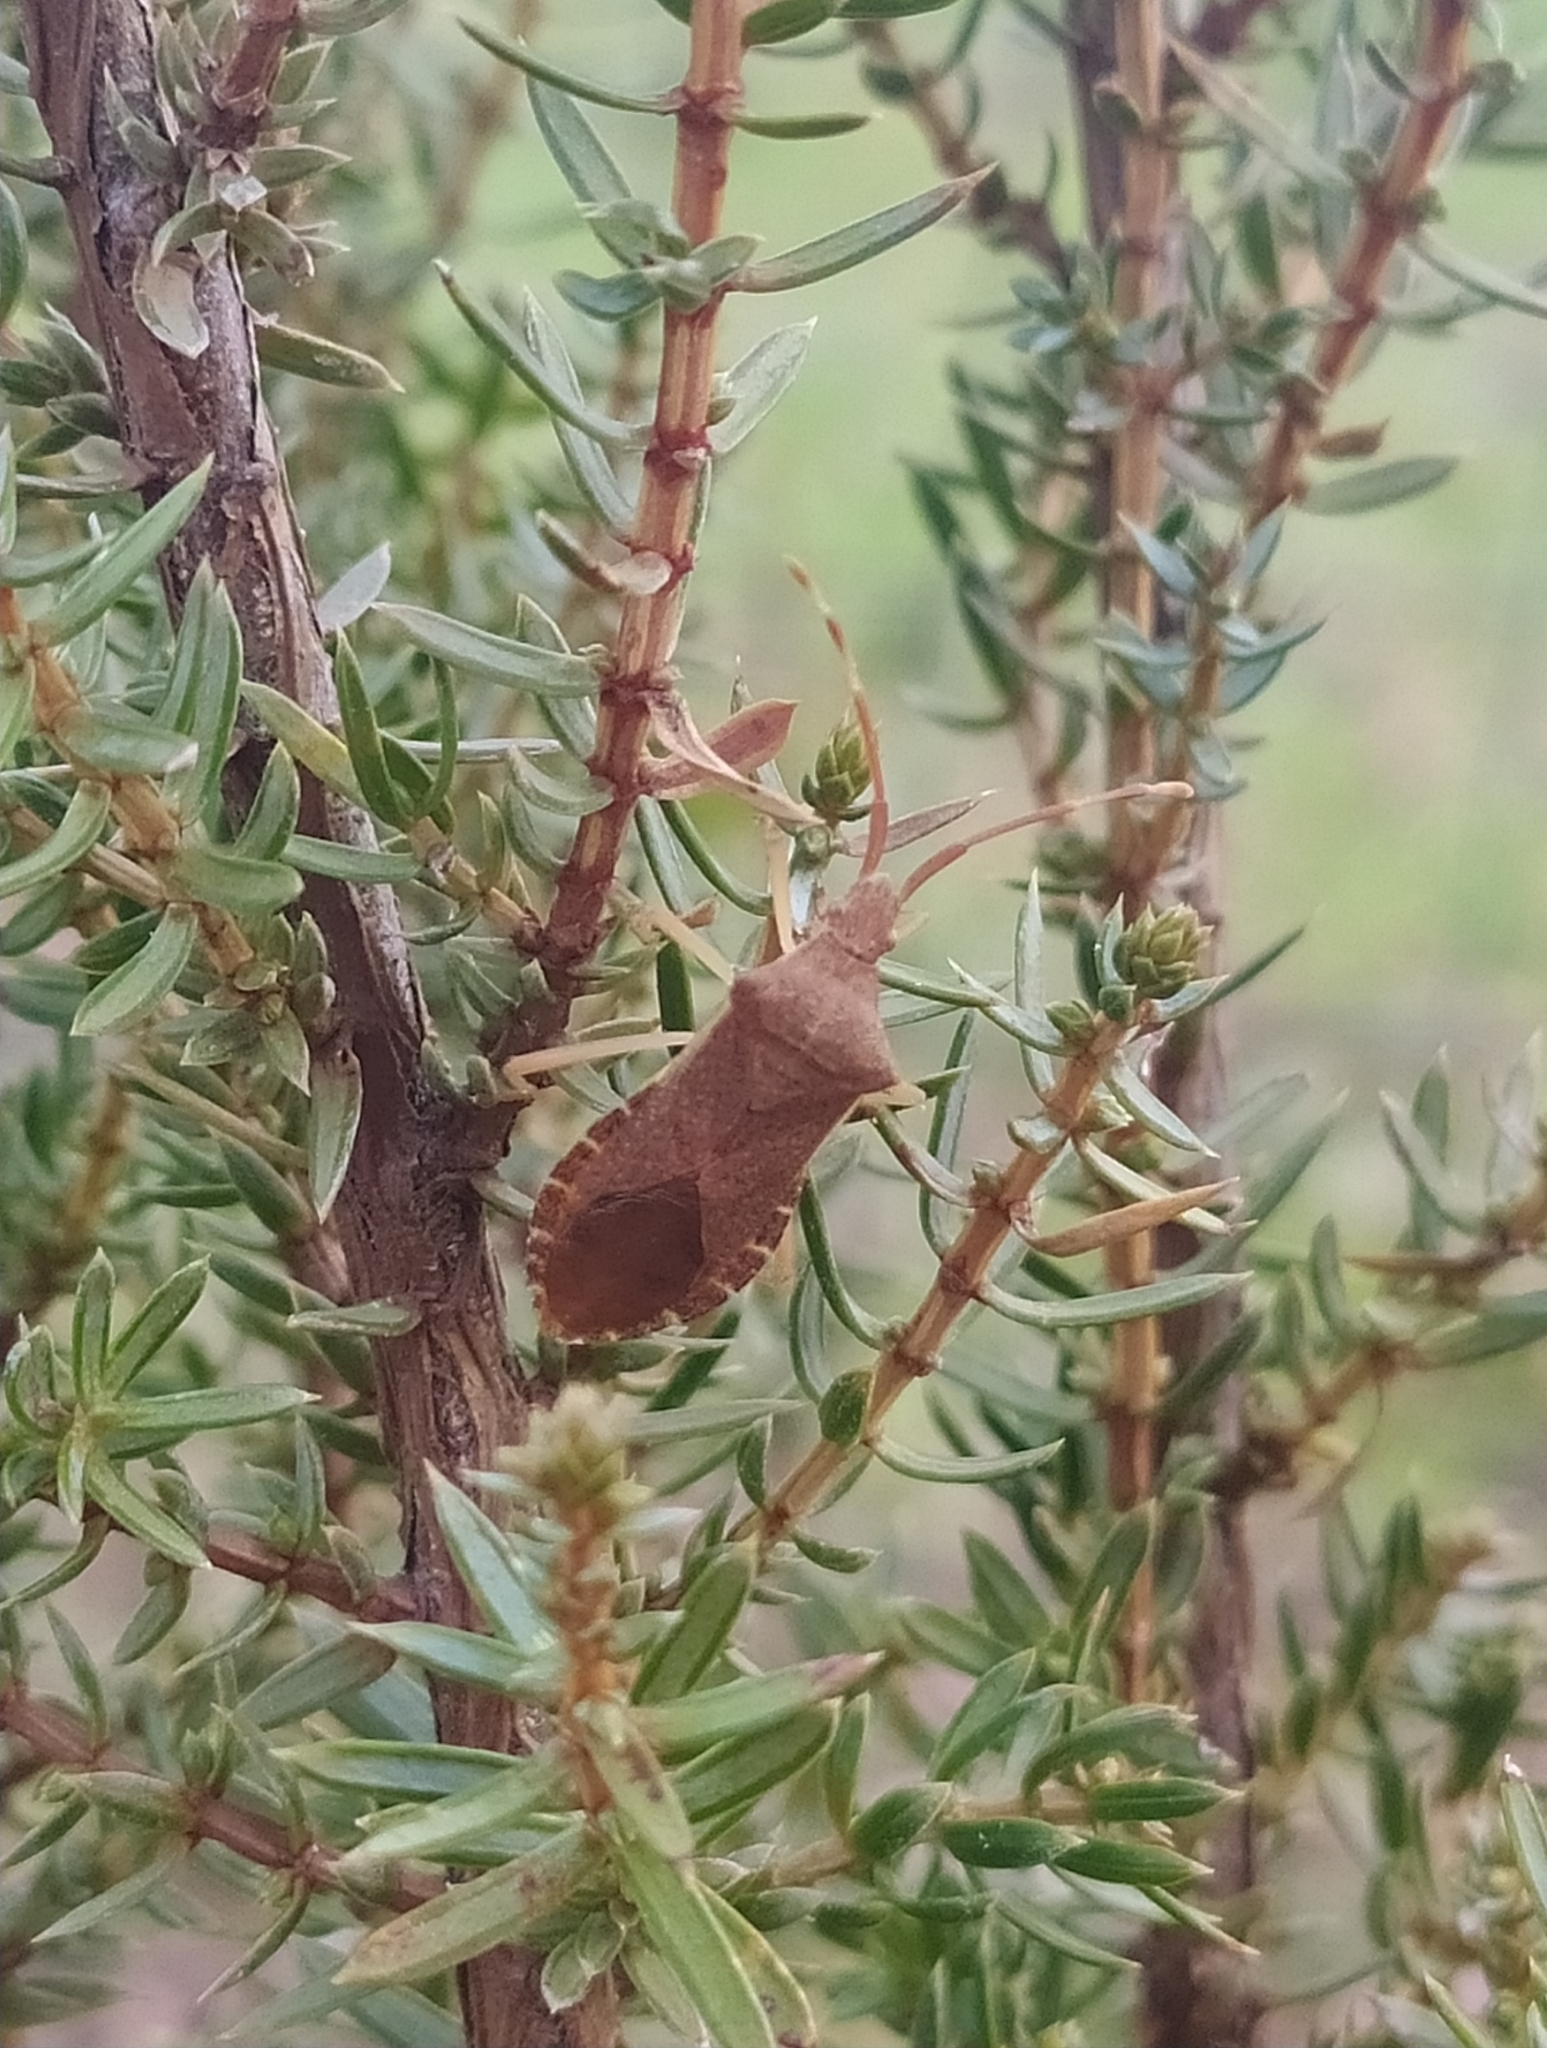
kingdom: Animalia
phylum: Arthropoda
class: Insecta
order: Hemiptera
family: Coreidae
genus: Gonocerus
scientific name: Gonocerus acuteangulatus
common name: Box bug
